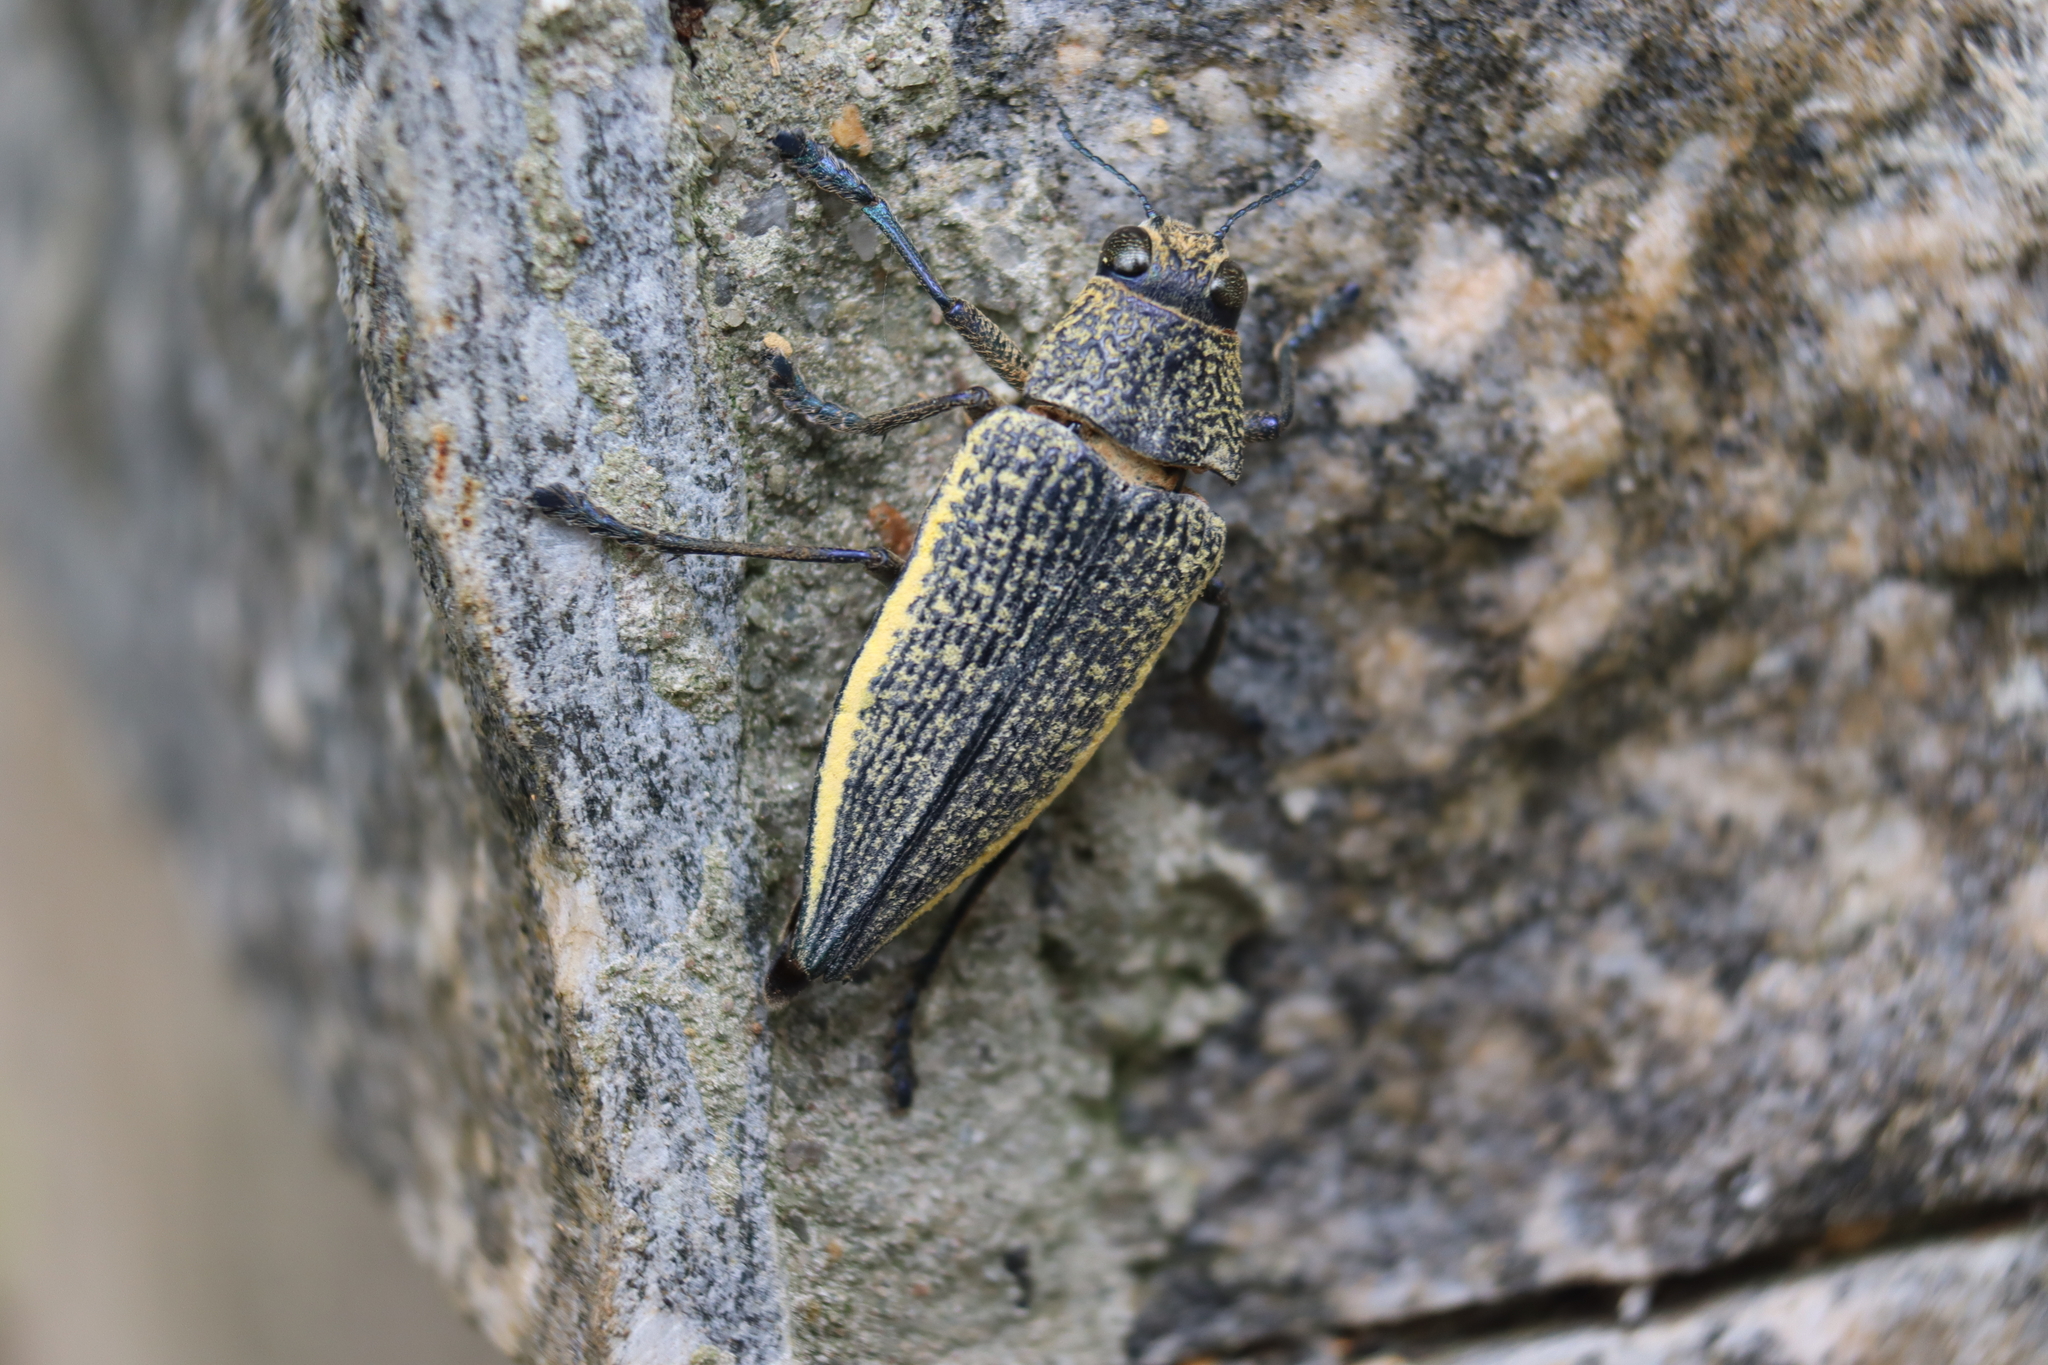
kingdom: Animalia
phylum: Arthropoda
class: Insecta
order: Coleoptera
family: Buprestidae
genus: Psiloptera
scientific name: Psiloptera olivieri
